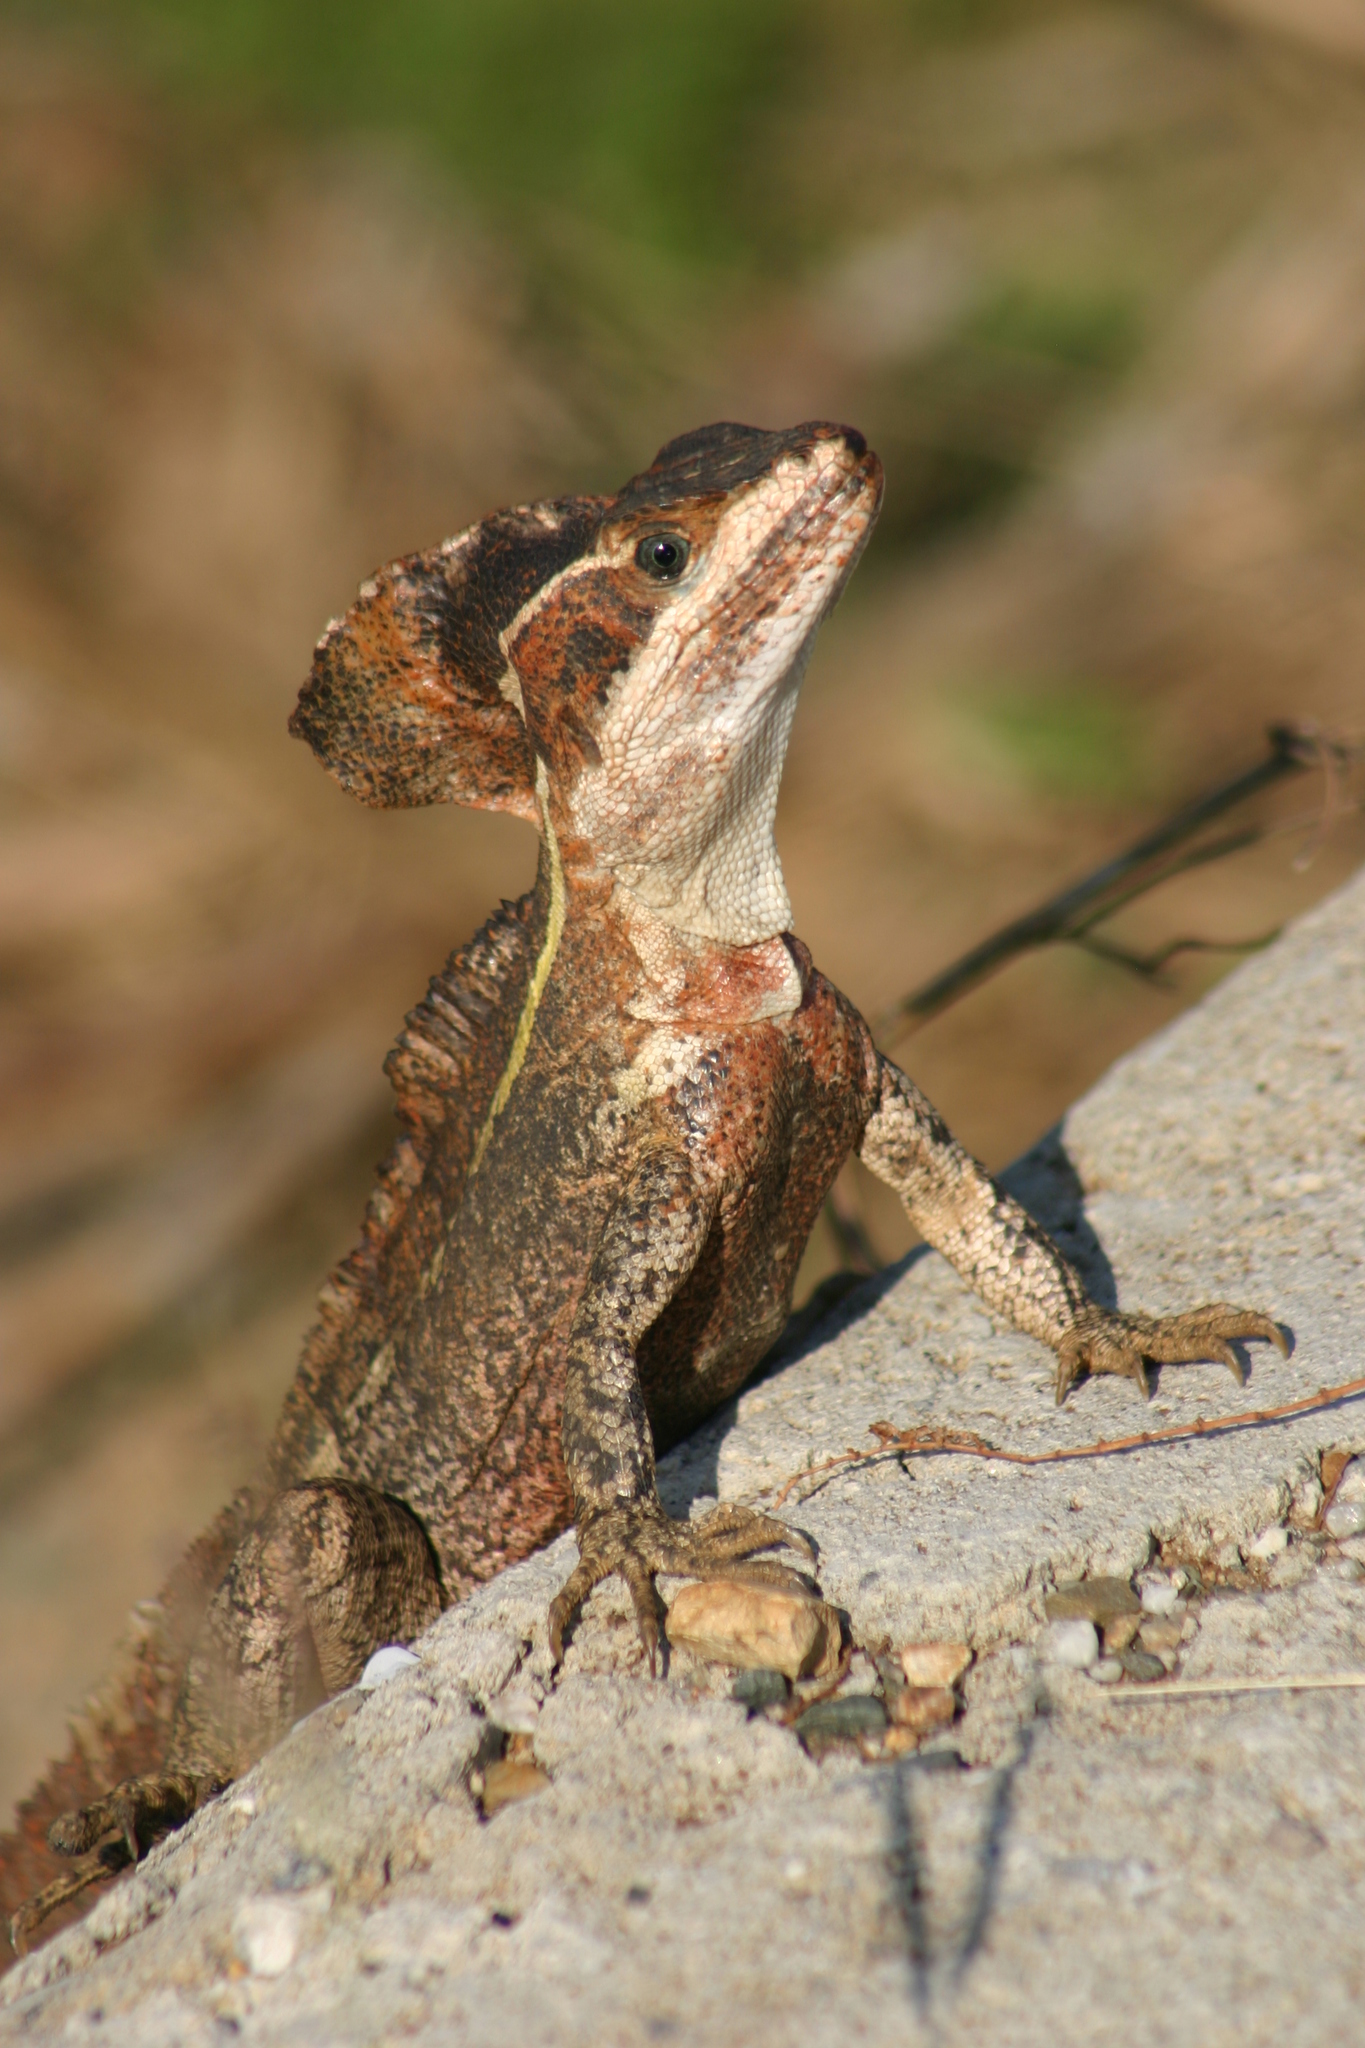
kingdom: Animalia
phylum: Chordata
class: Squamata
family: Corytophanidae
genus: Basiliscus
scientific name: Basiliscus vittatus
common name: Brown basilisk
